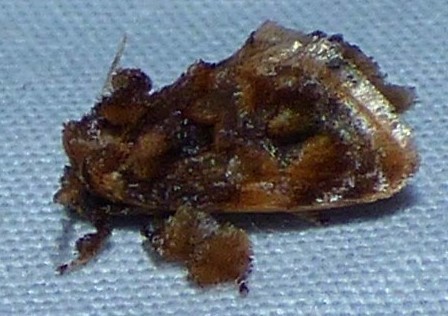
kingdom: Animalia
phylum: Arthropoda
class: Insecta
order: Lepidoptera
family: Limacodidae
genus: Isochaetes
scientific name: Isochaetes beutenmuelleri
